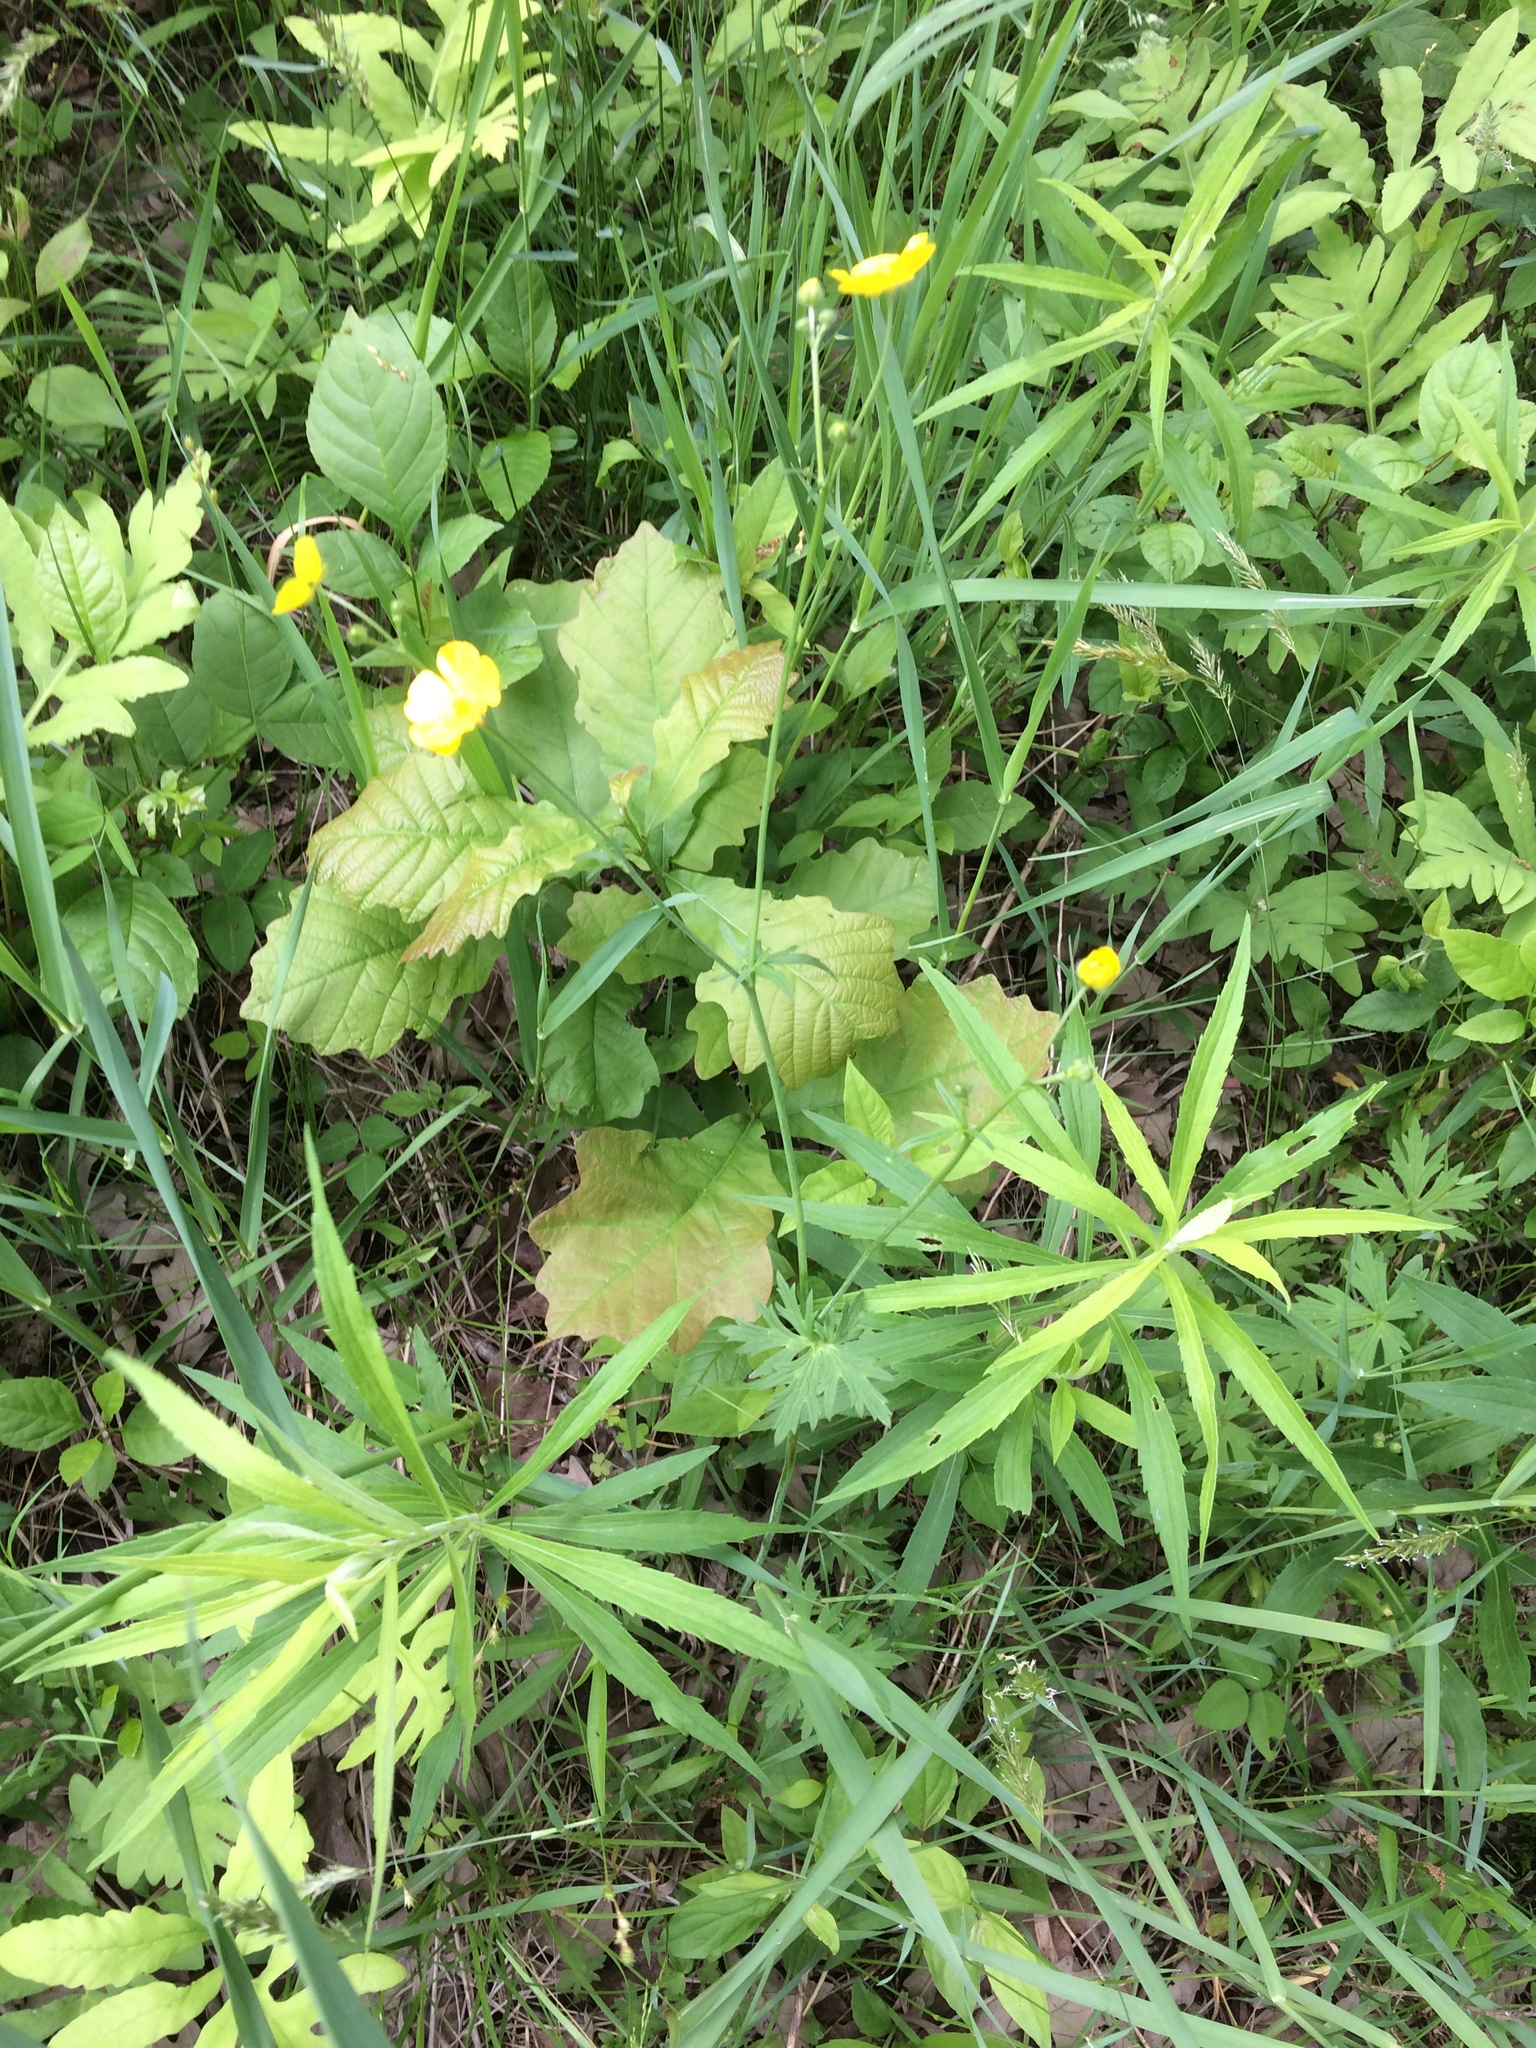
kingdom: Plantae
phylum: Tracheophyta
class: Magnoliopsida
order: Ranunculales
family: Ranunculaceae
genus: Ranunculus
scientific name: Ranunculus acris
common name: Meadow buttercup
